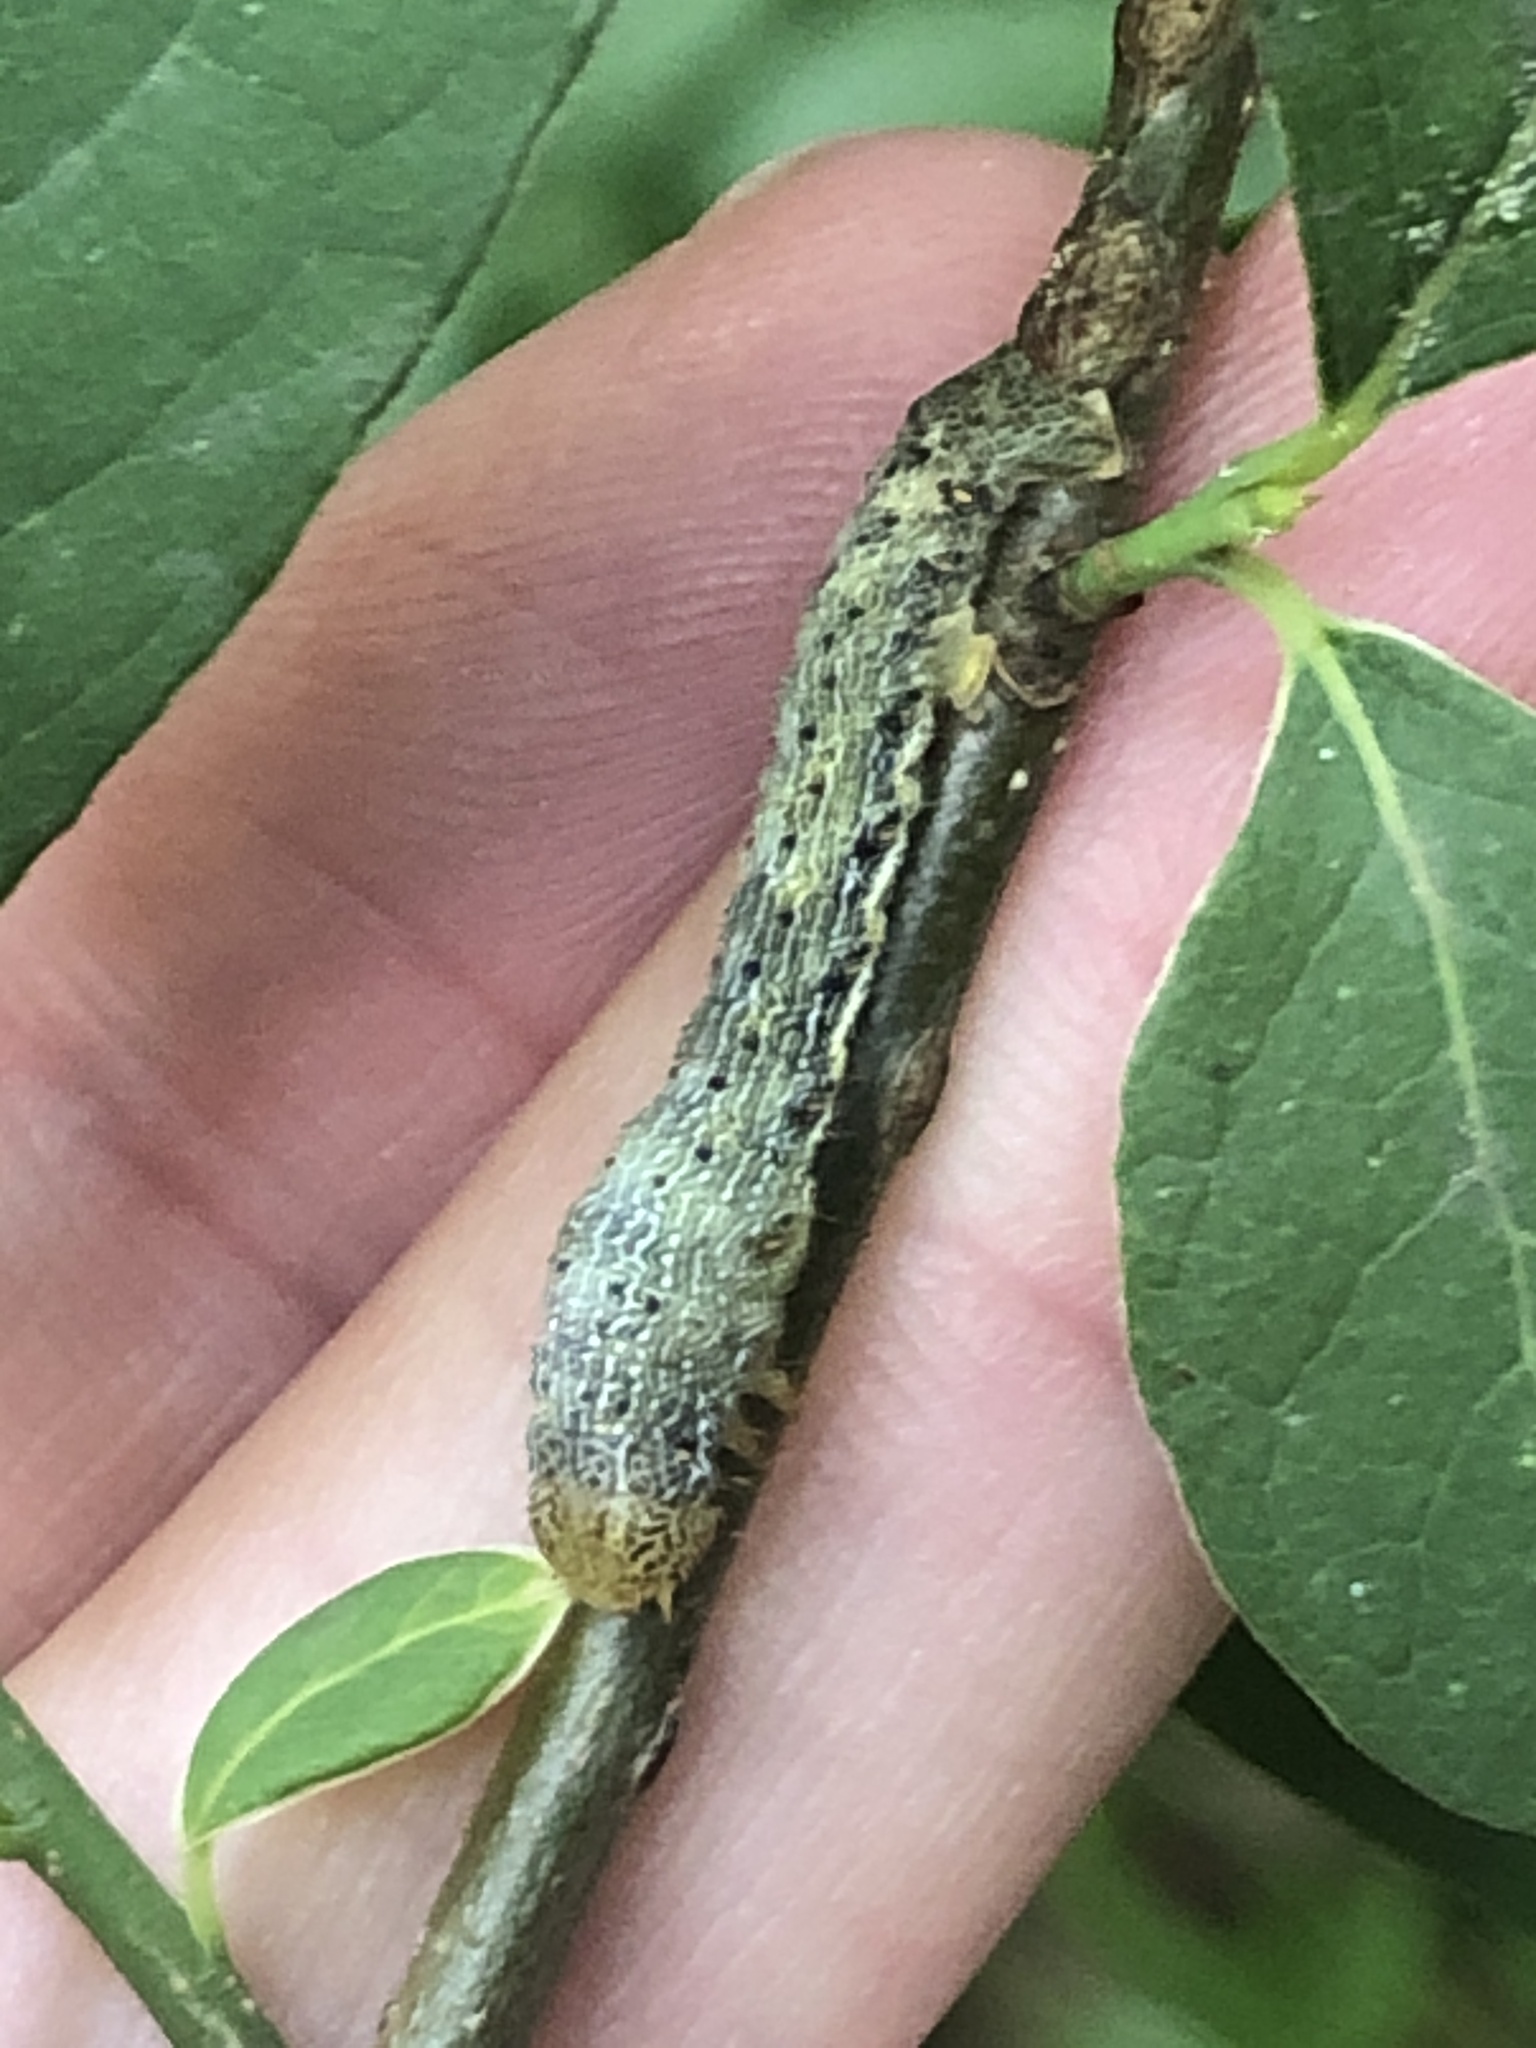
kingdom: Animalia
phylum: Arthropoda
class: Insecta
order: Lepidoptera
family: Geometridae
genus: Epimecis
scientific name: Epimecis hortaria
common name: Tulip-tree beauty
